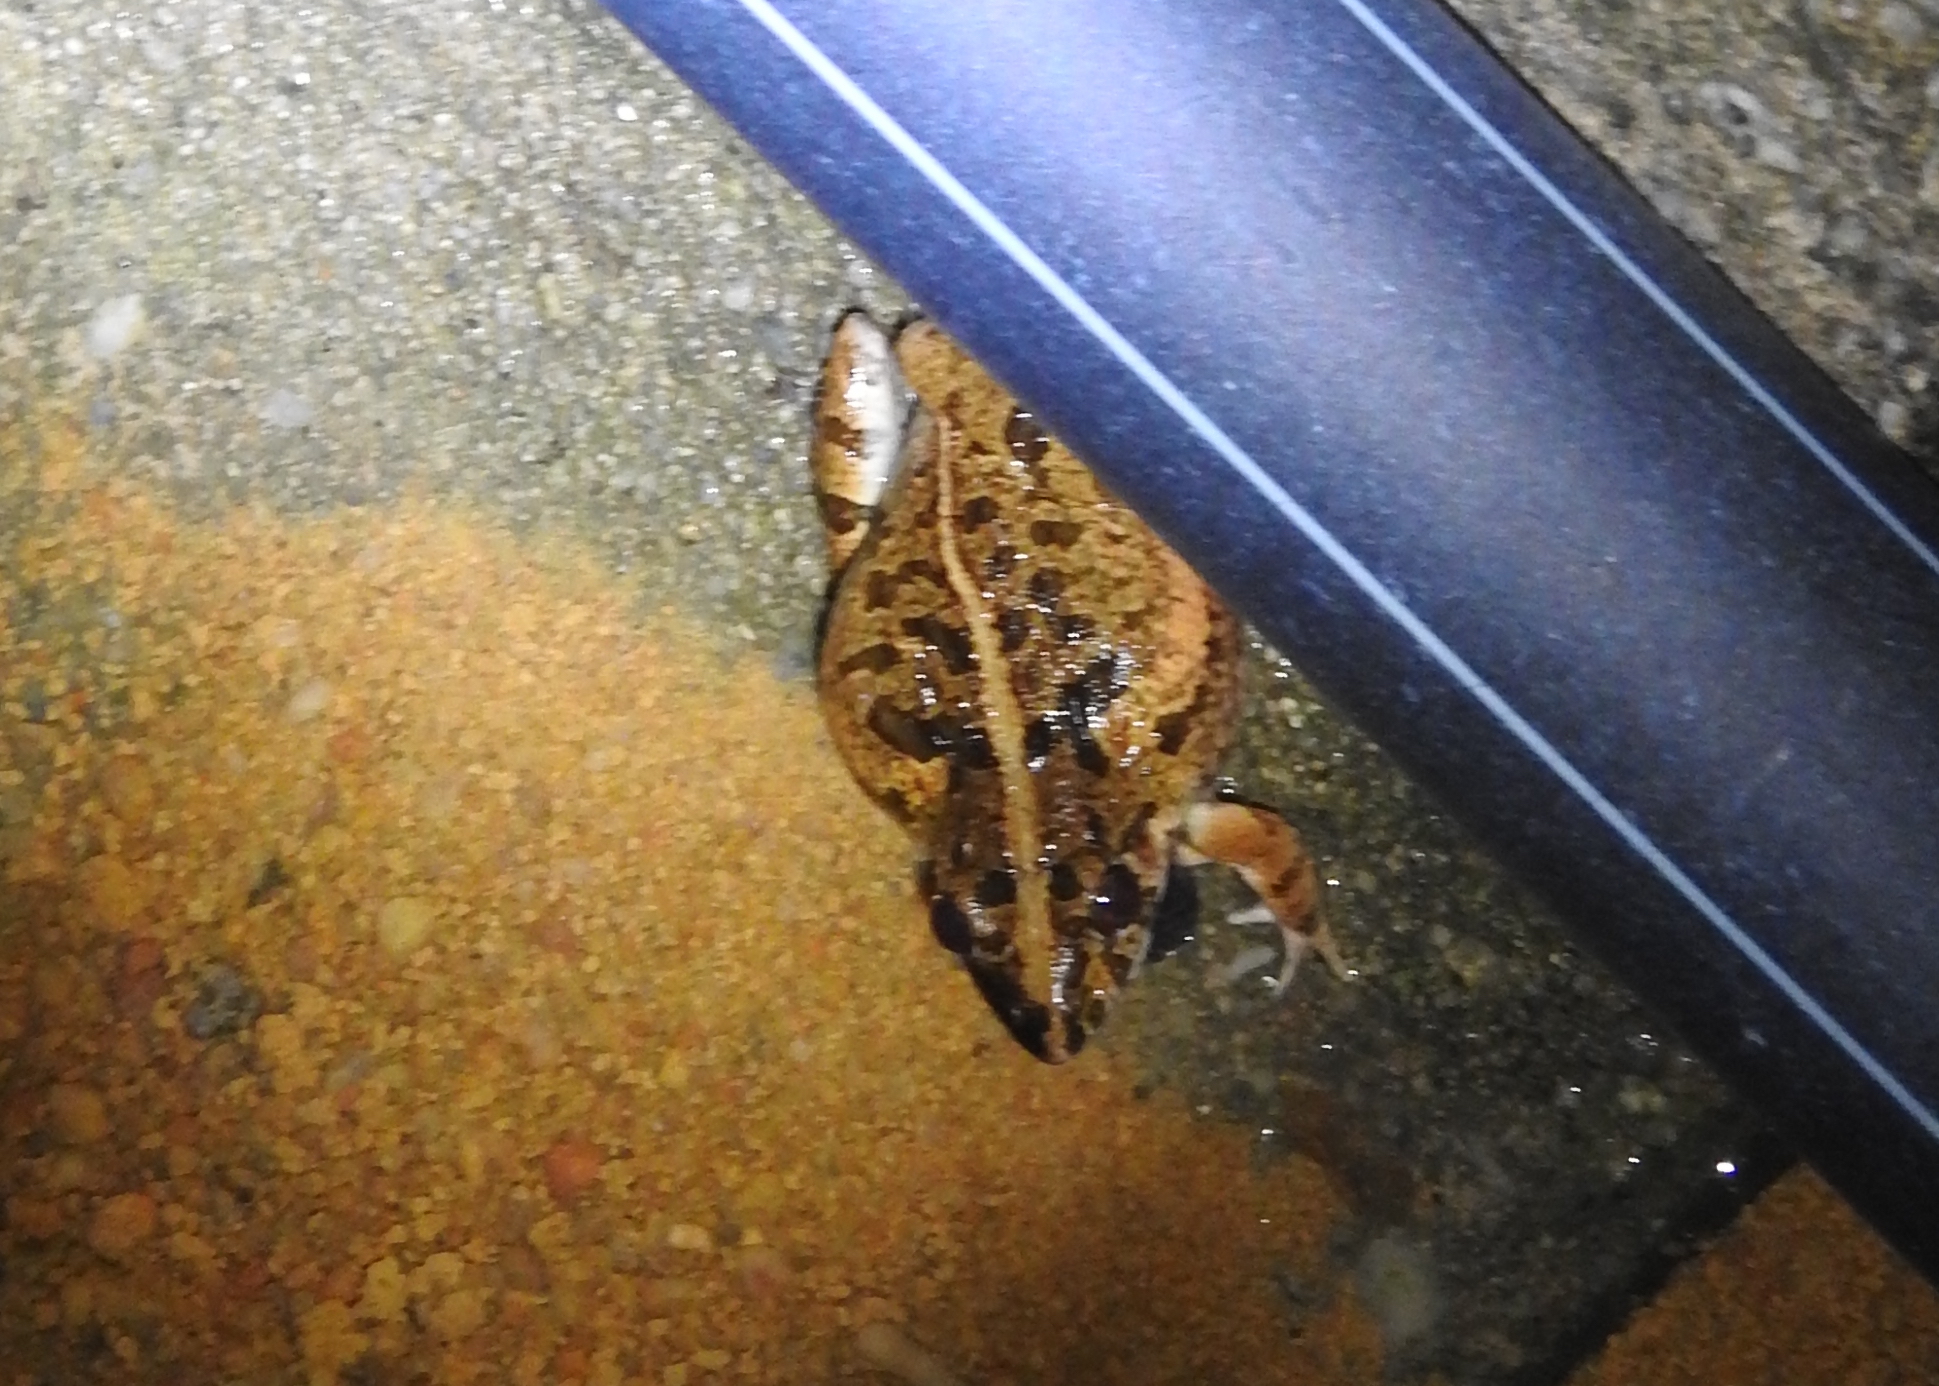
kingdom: Animalia
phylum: Chordata
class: Amphibia
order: Anura
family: Dicroglossidae
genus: Fejervarya
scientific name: Fejervarya limnocharis
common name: Asian grass frog/common pond frog/field frog/grass frog/indian rice frog
